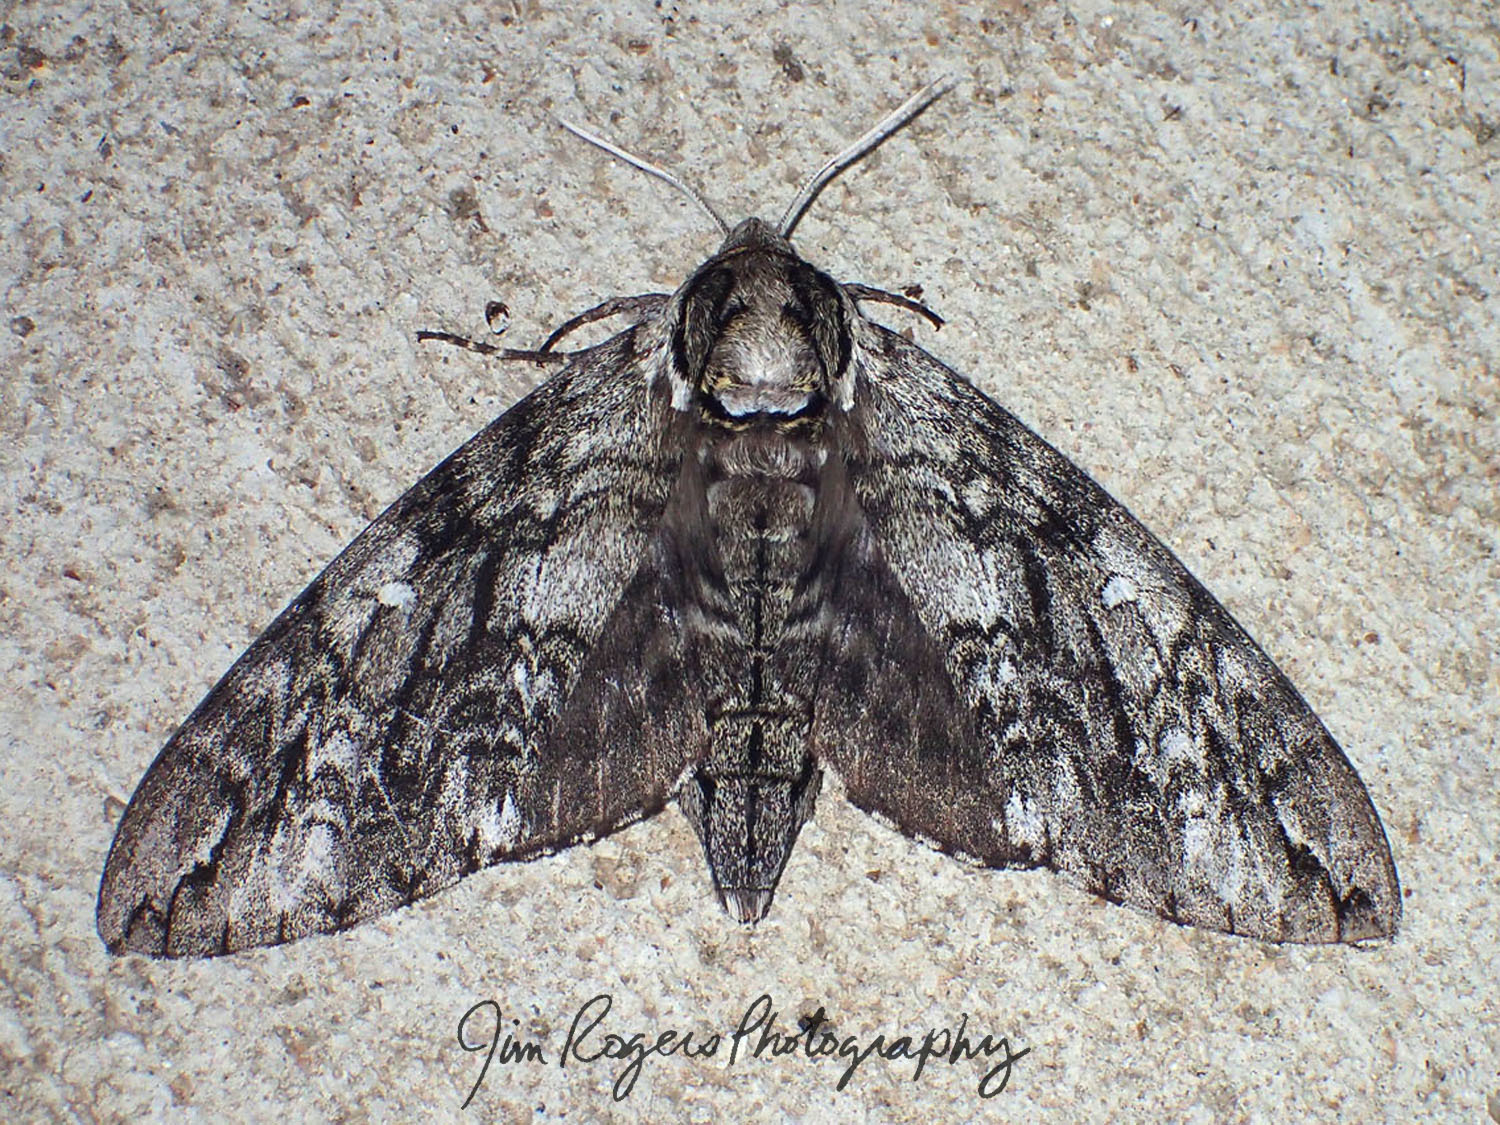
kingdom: Animalia
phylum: Arthropoda
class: Insecta
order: Lepidoptera
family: Sphingidae
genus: Ceratomia
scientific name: Ceratomia undulosa
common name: Waved sphinx
